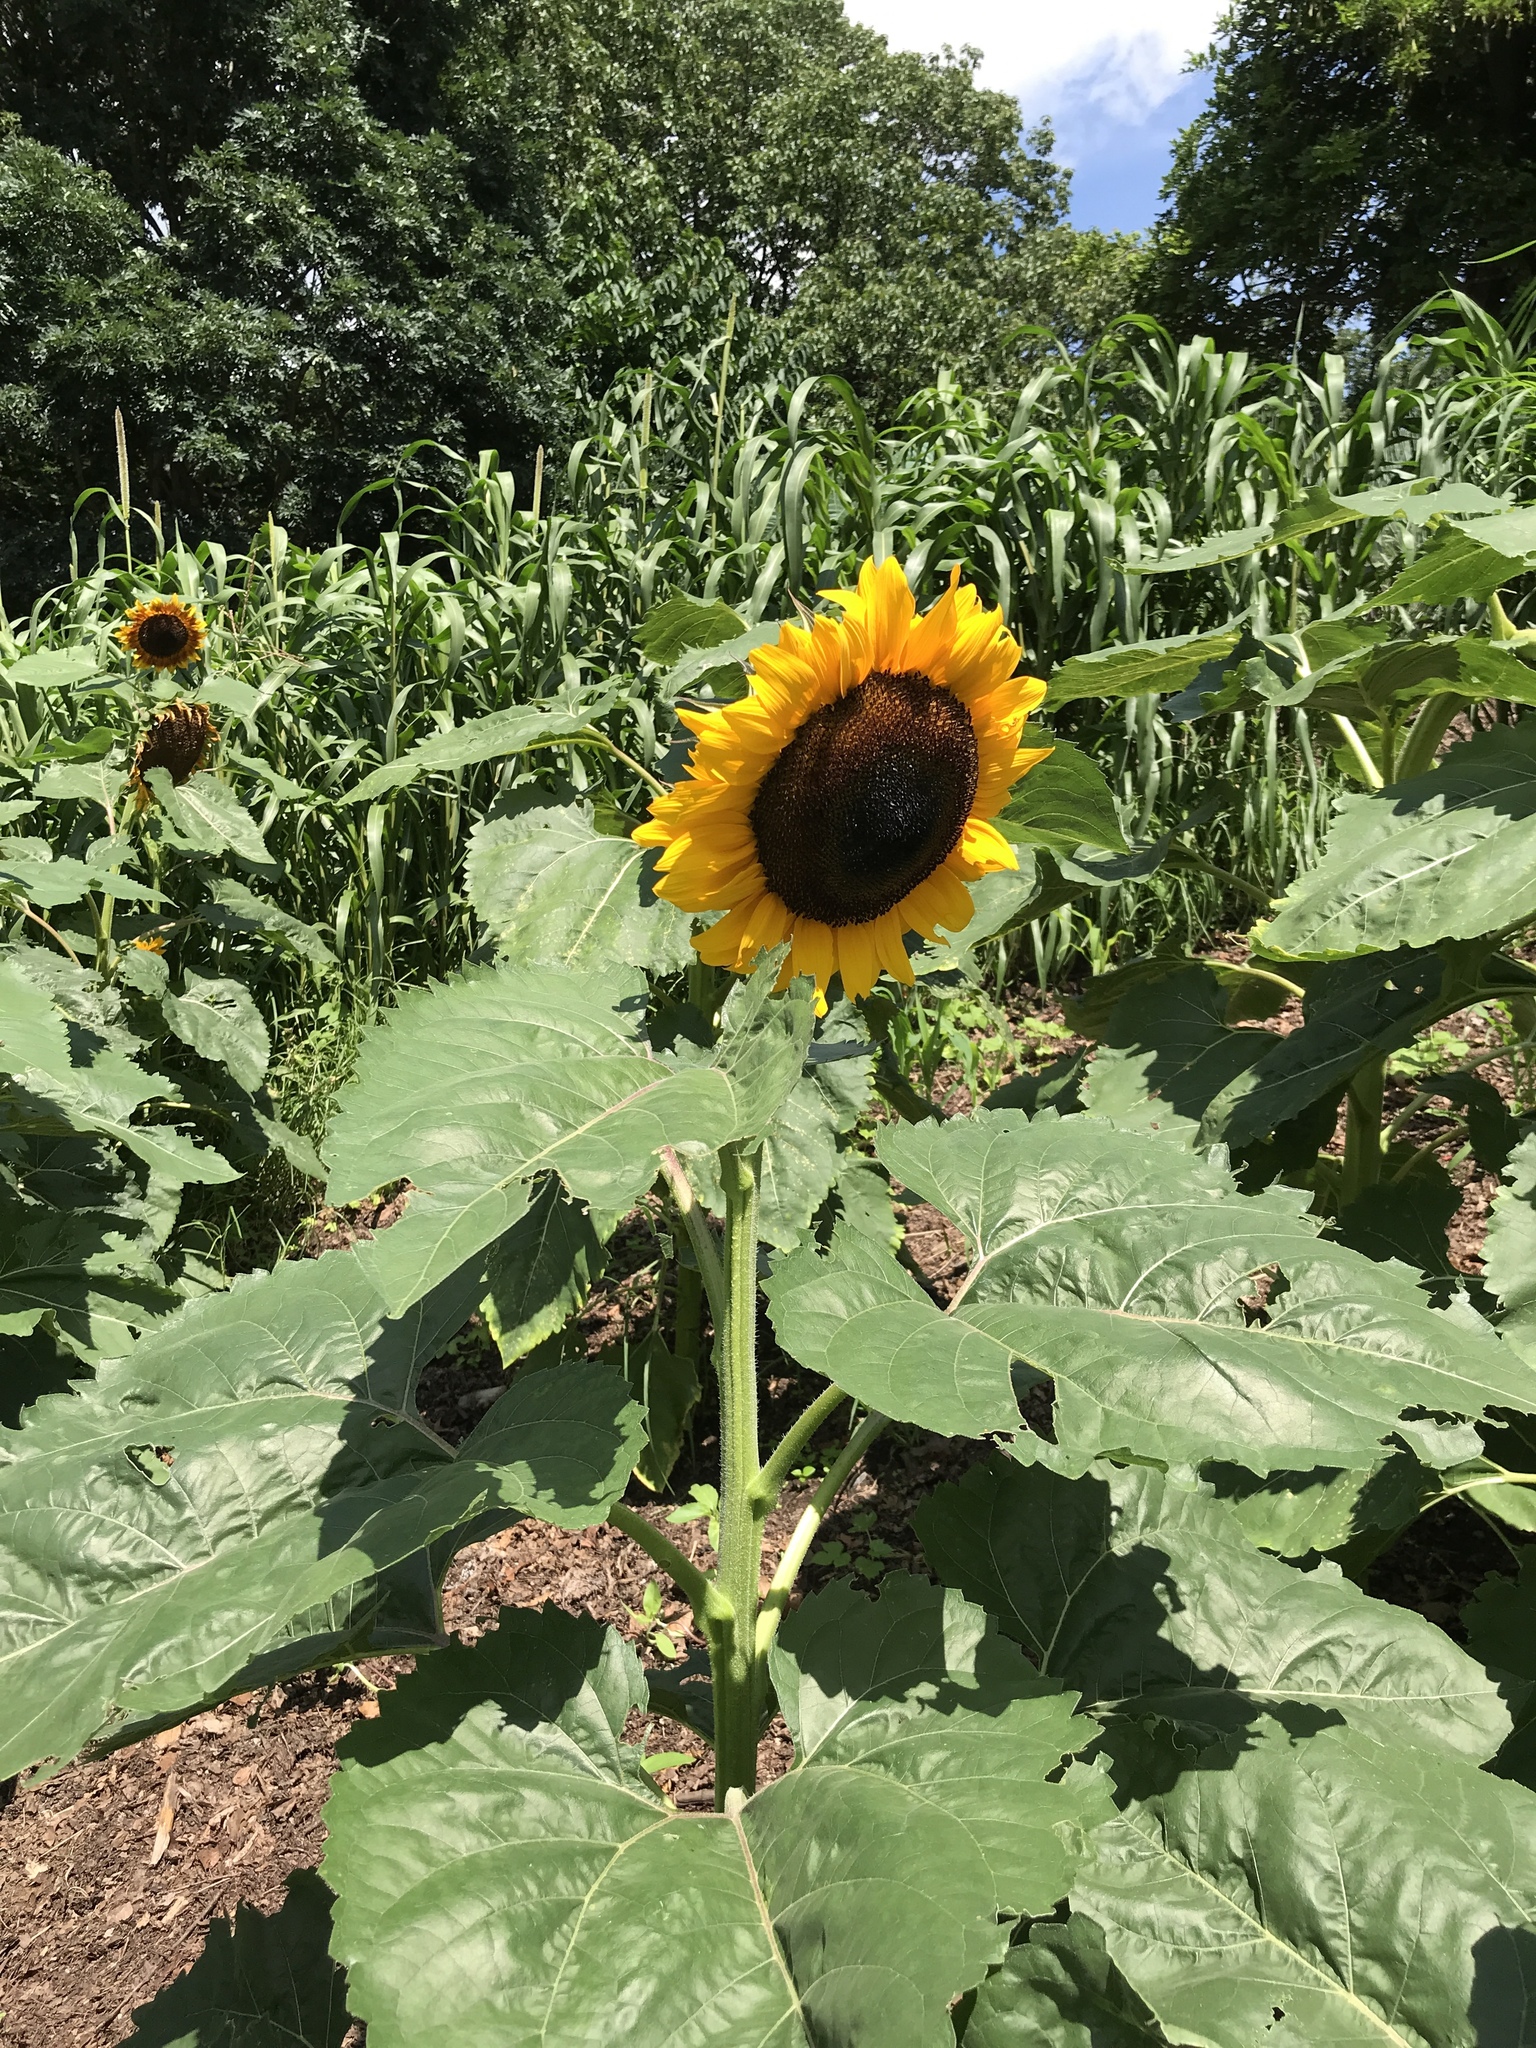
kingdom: Plantae
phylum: Tracheophyta
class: Magnoliopsida
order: Asterales
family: Asteraceae
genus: Helianthus
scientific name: Helianthus annuus
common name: Sunflower
